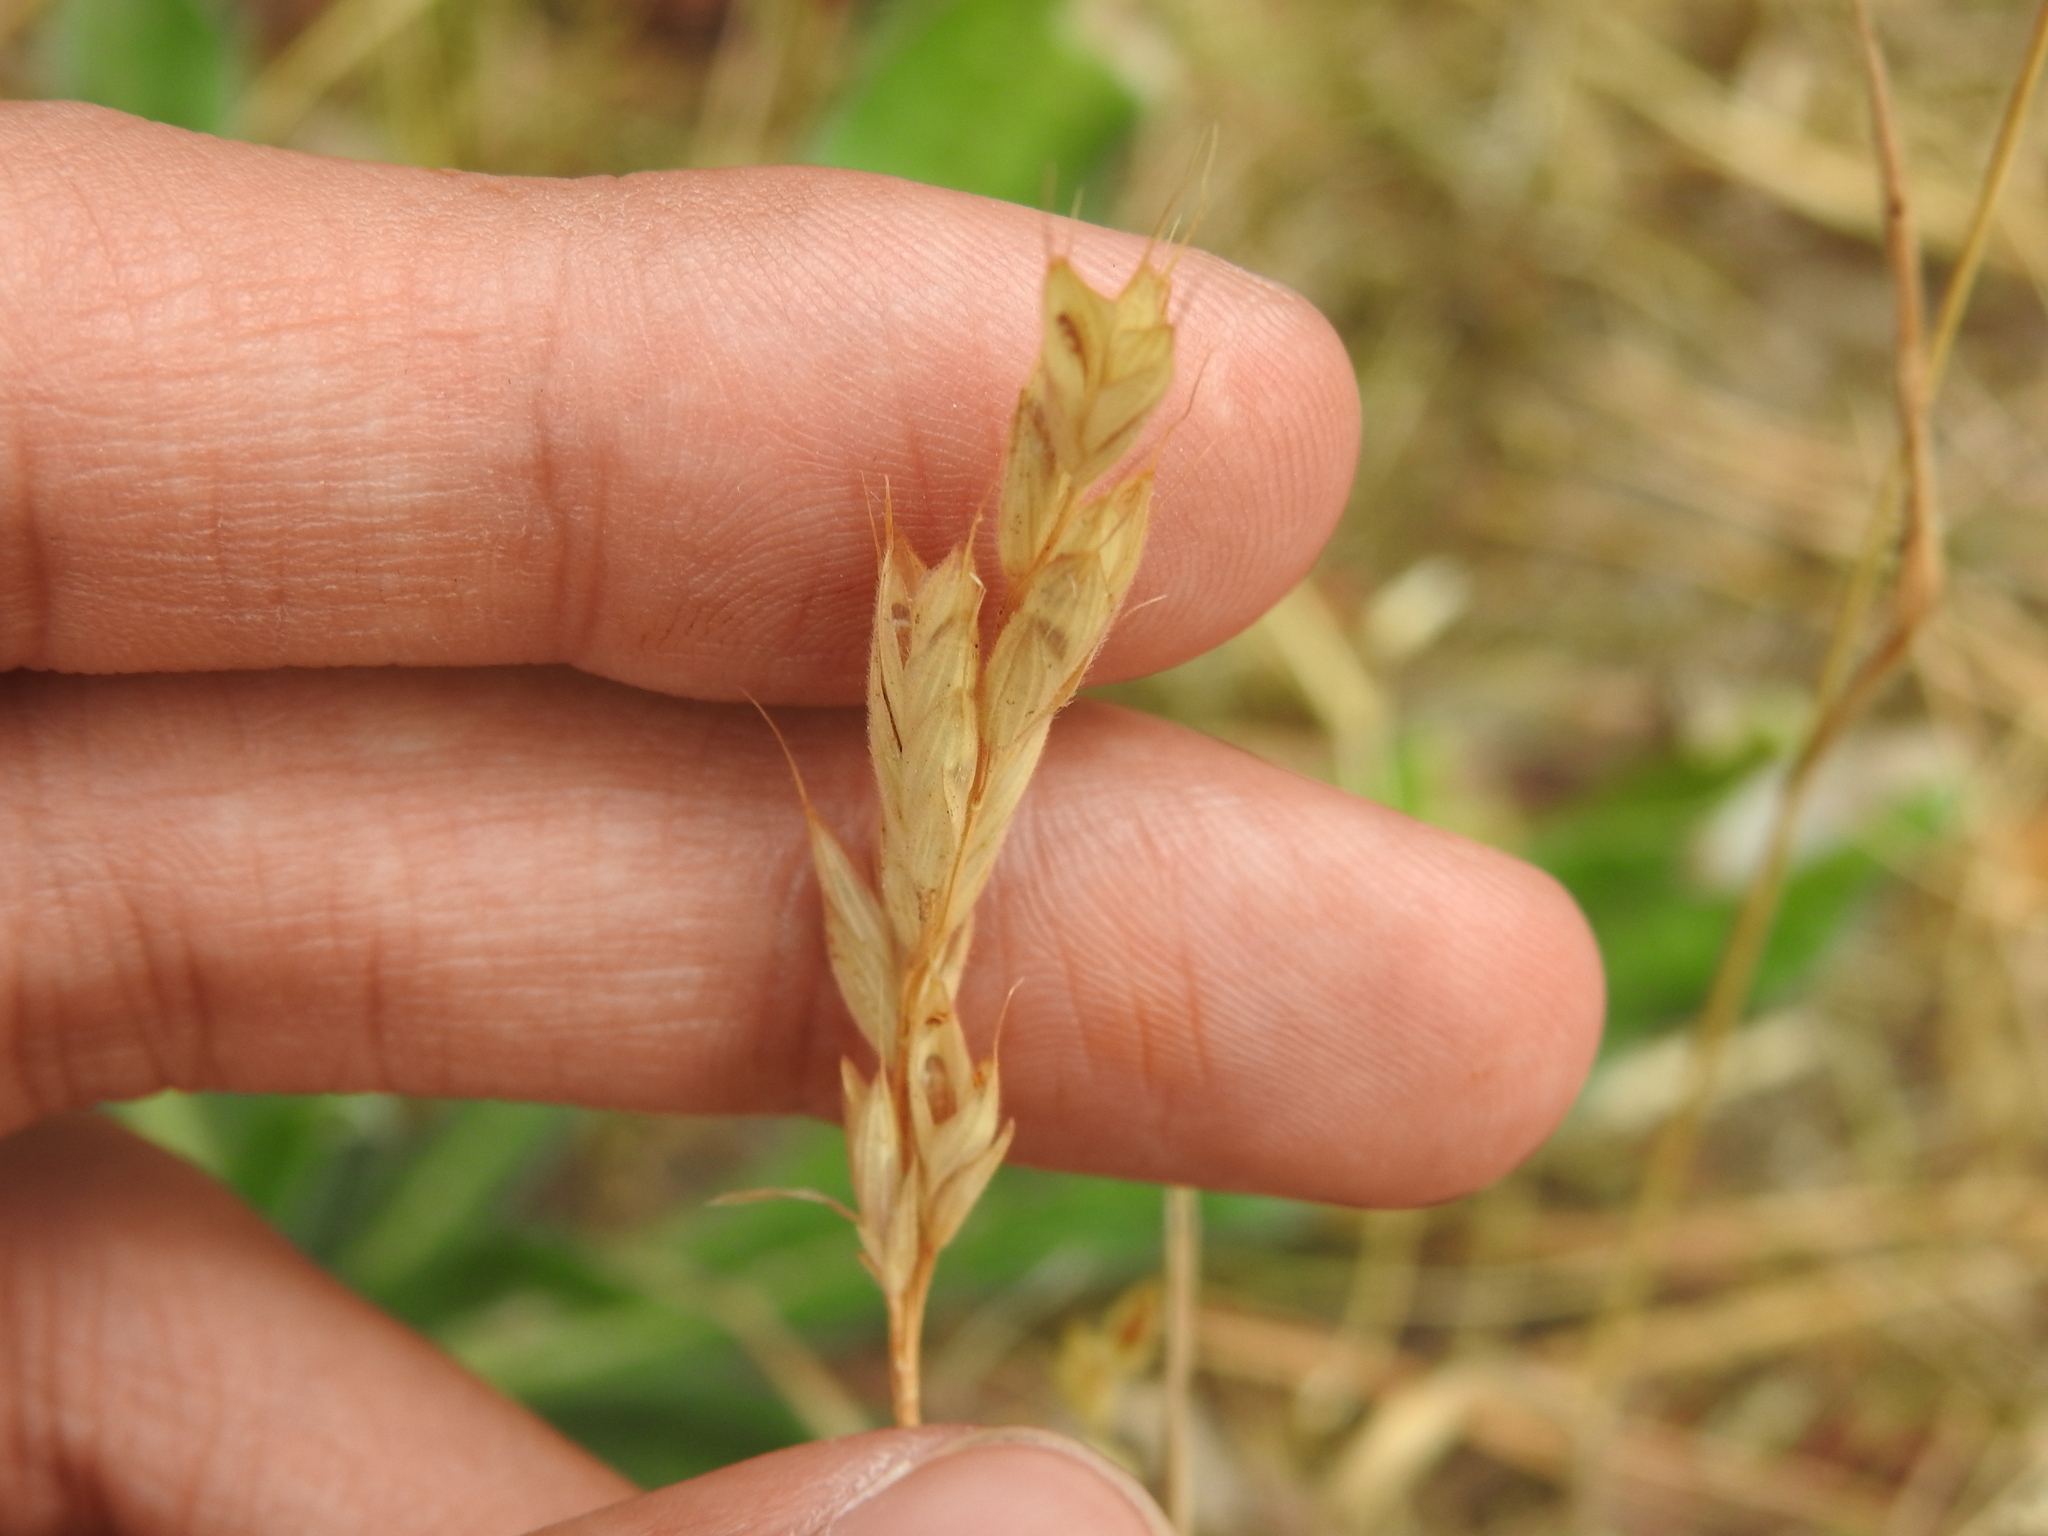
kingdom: Plantae
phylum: Tracheophyta
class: Liliopsida
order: Poales
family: Poaceae
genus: Bromus
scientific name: Bromus hordeaceus
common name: Soft brome
